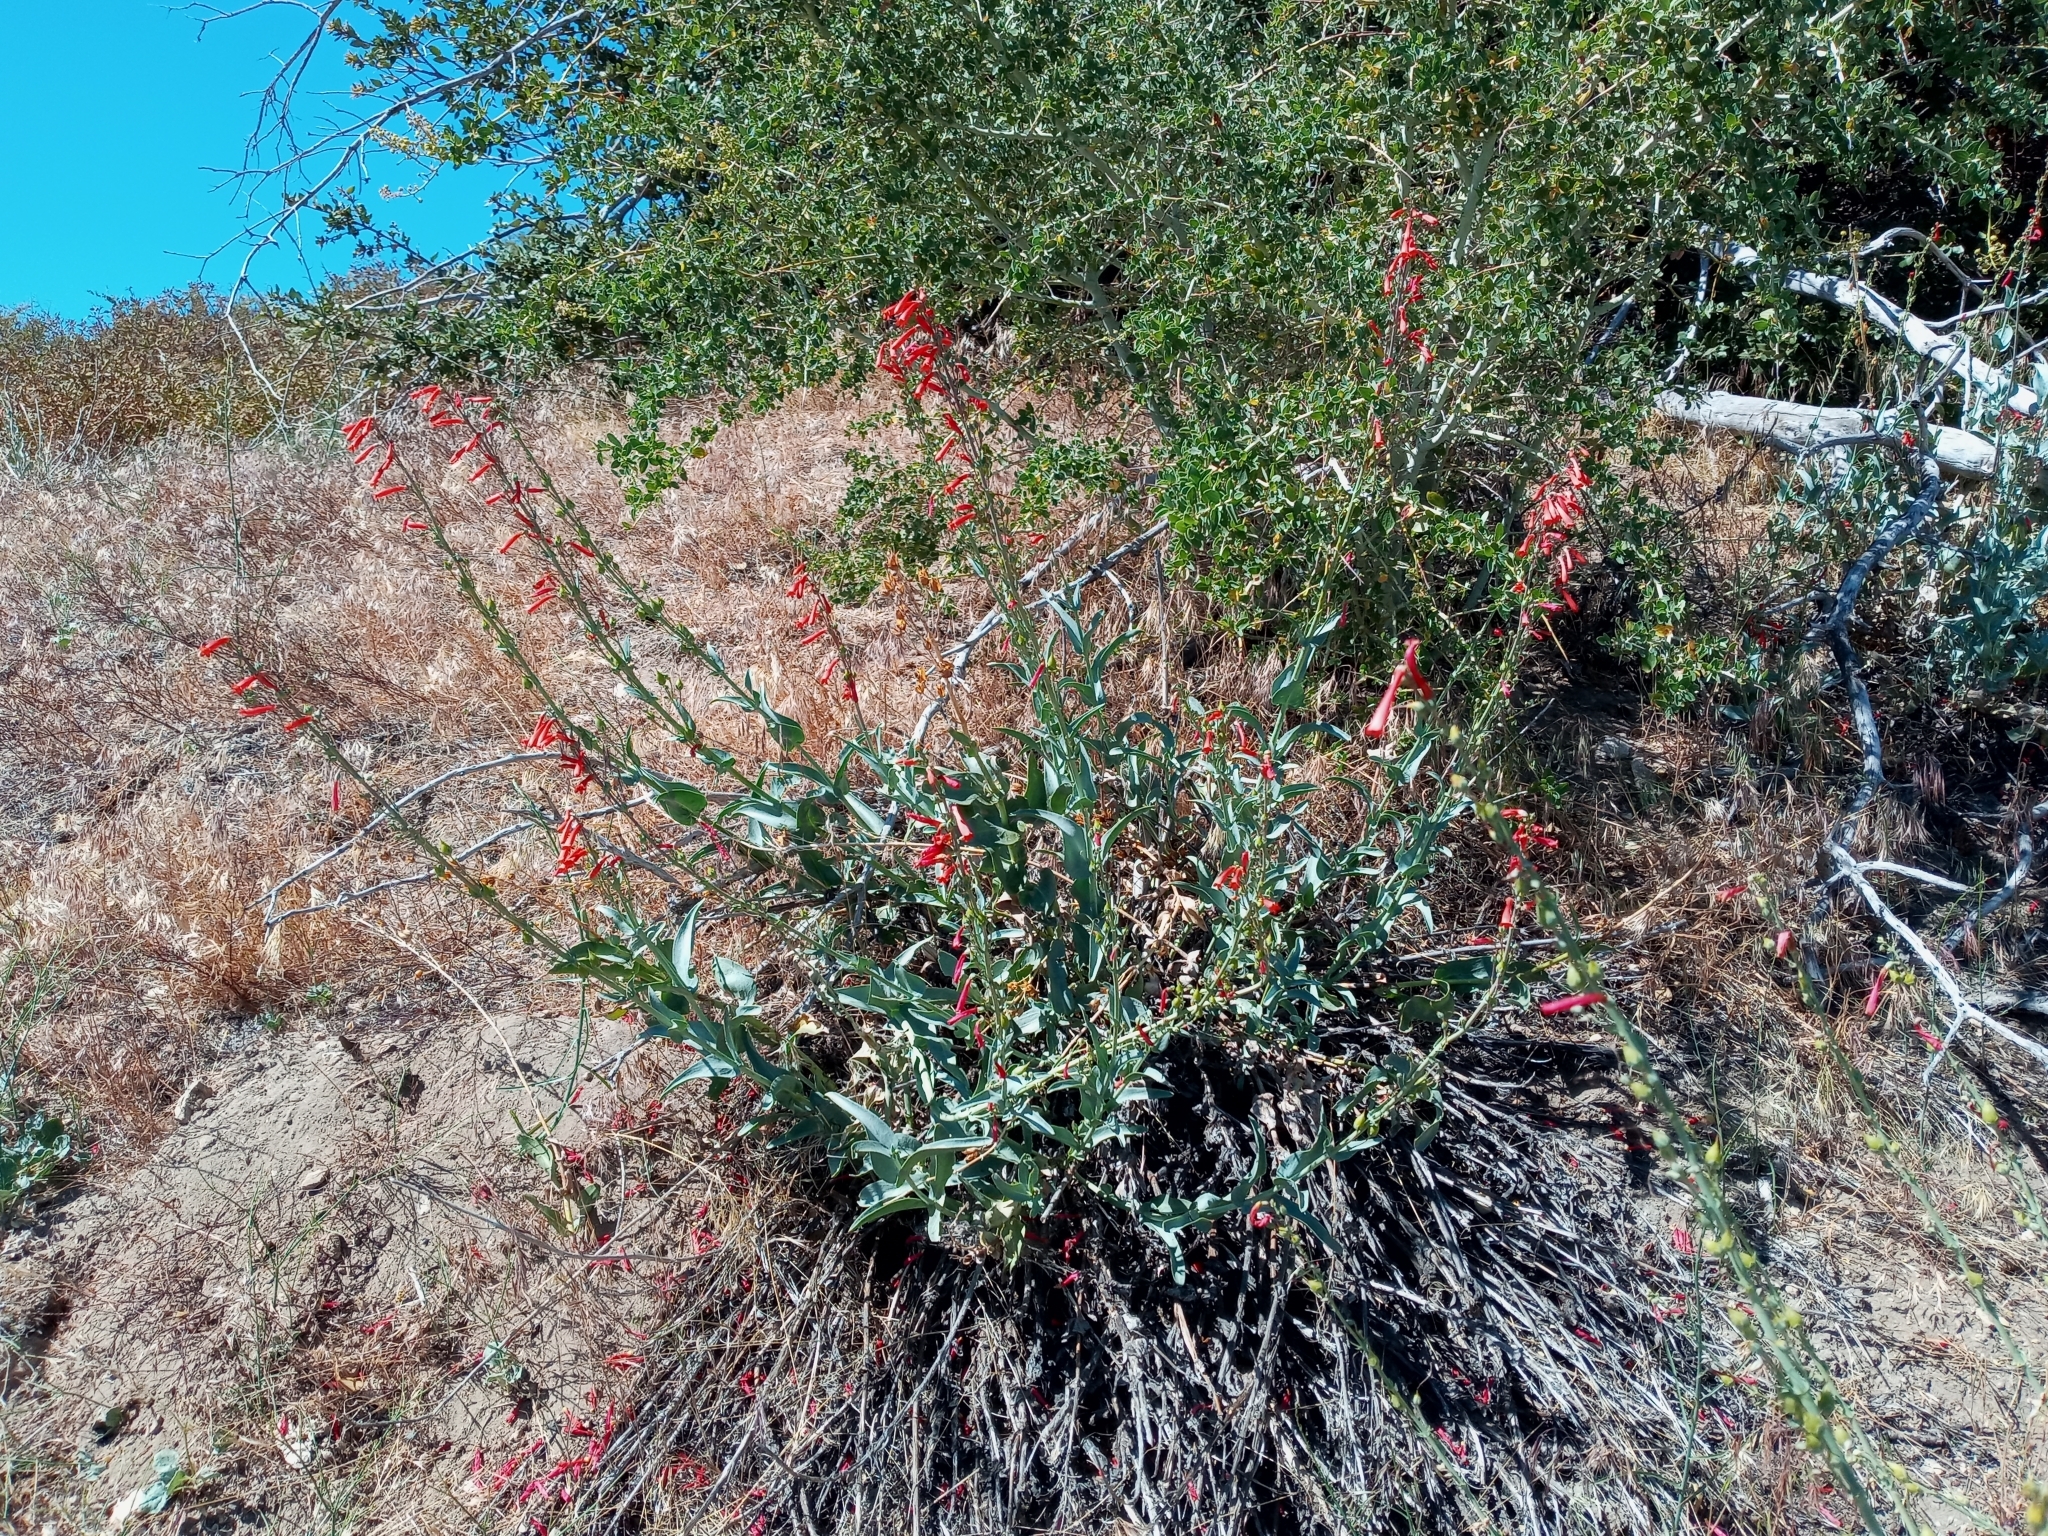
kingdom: Plantae
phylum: Tracheophyta
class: Magnoliopsida
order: Lamiales
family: Plantaginaceae
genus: Penstemon
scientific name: Penstemon centranthifolius
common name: Scarlet bugler
